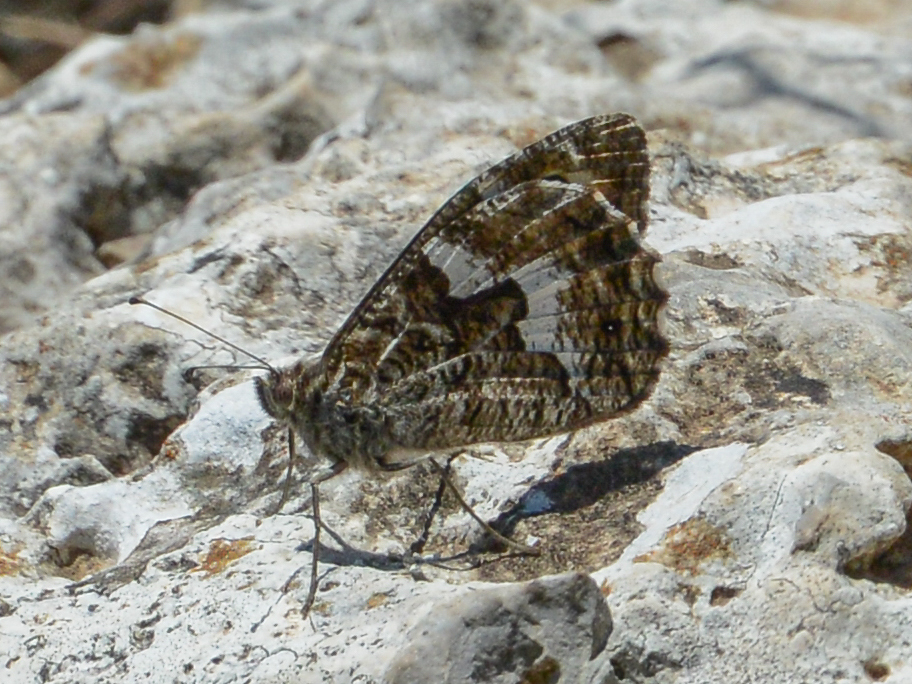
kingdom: Animalia
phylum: Arthropoda
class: Insecta
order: Lepidoptera
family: Nymphalidae
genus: Hipparchia
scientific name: Hipparchia cretica
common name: Cretan grayling
